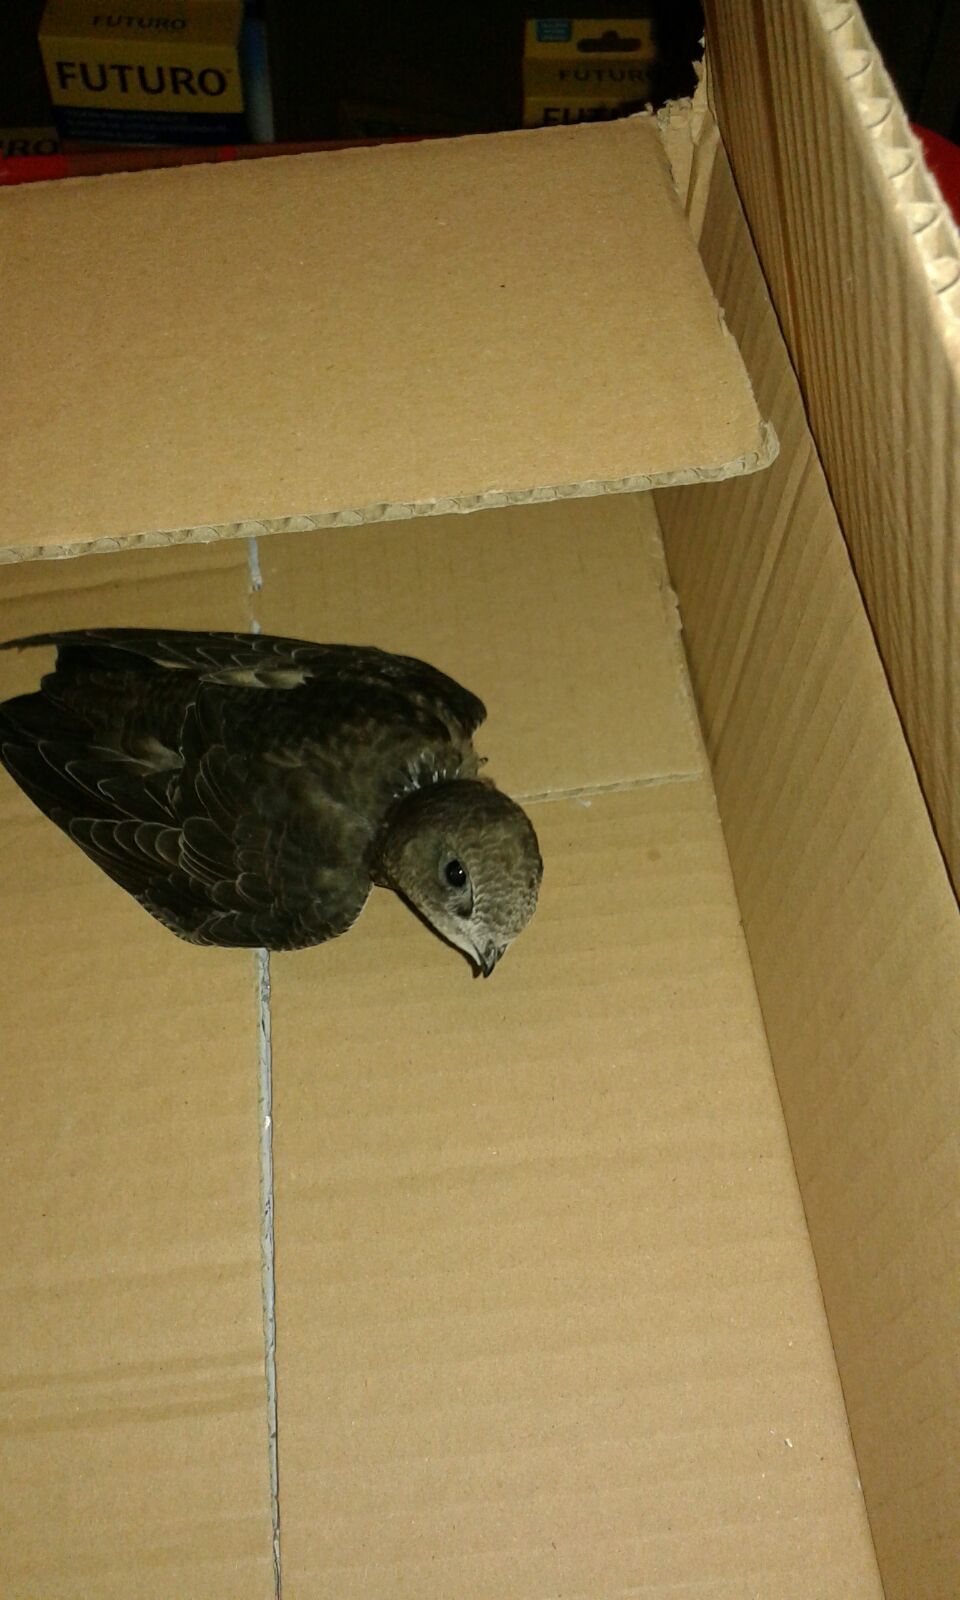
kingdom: Animalia
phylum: Chordata
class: Aves
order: Apodiformes
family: Apodidae
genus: Apus
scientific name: Apus apus
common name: Common swift
